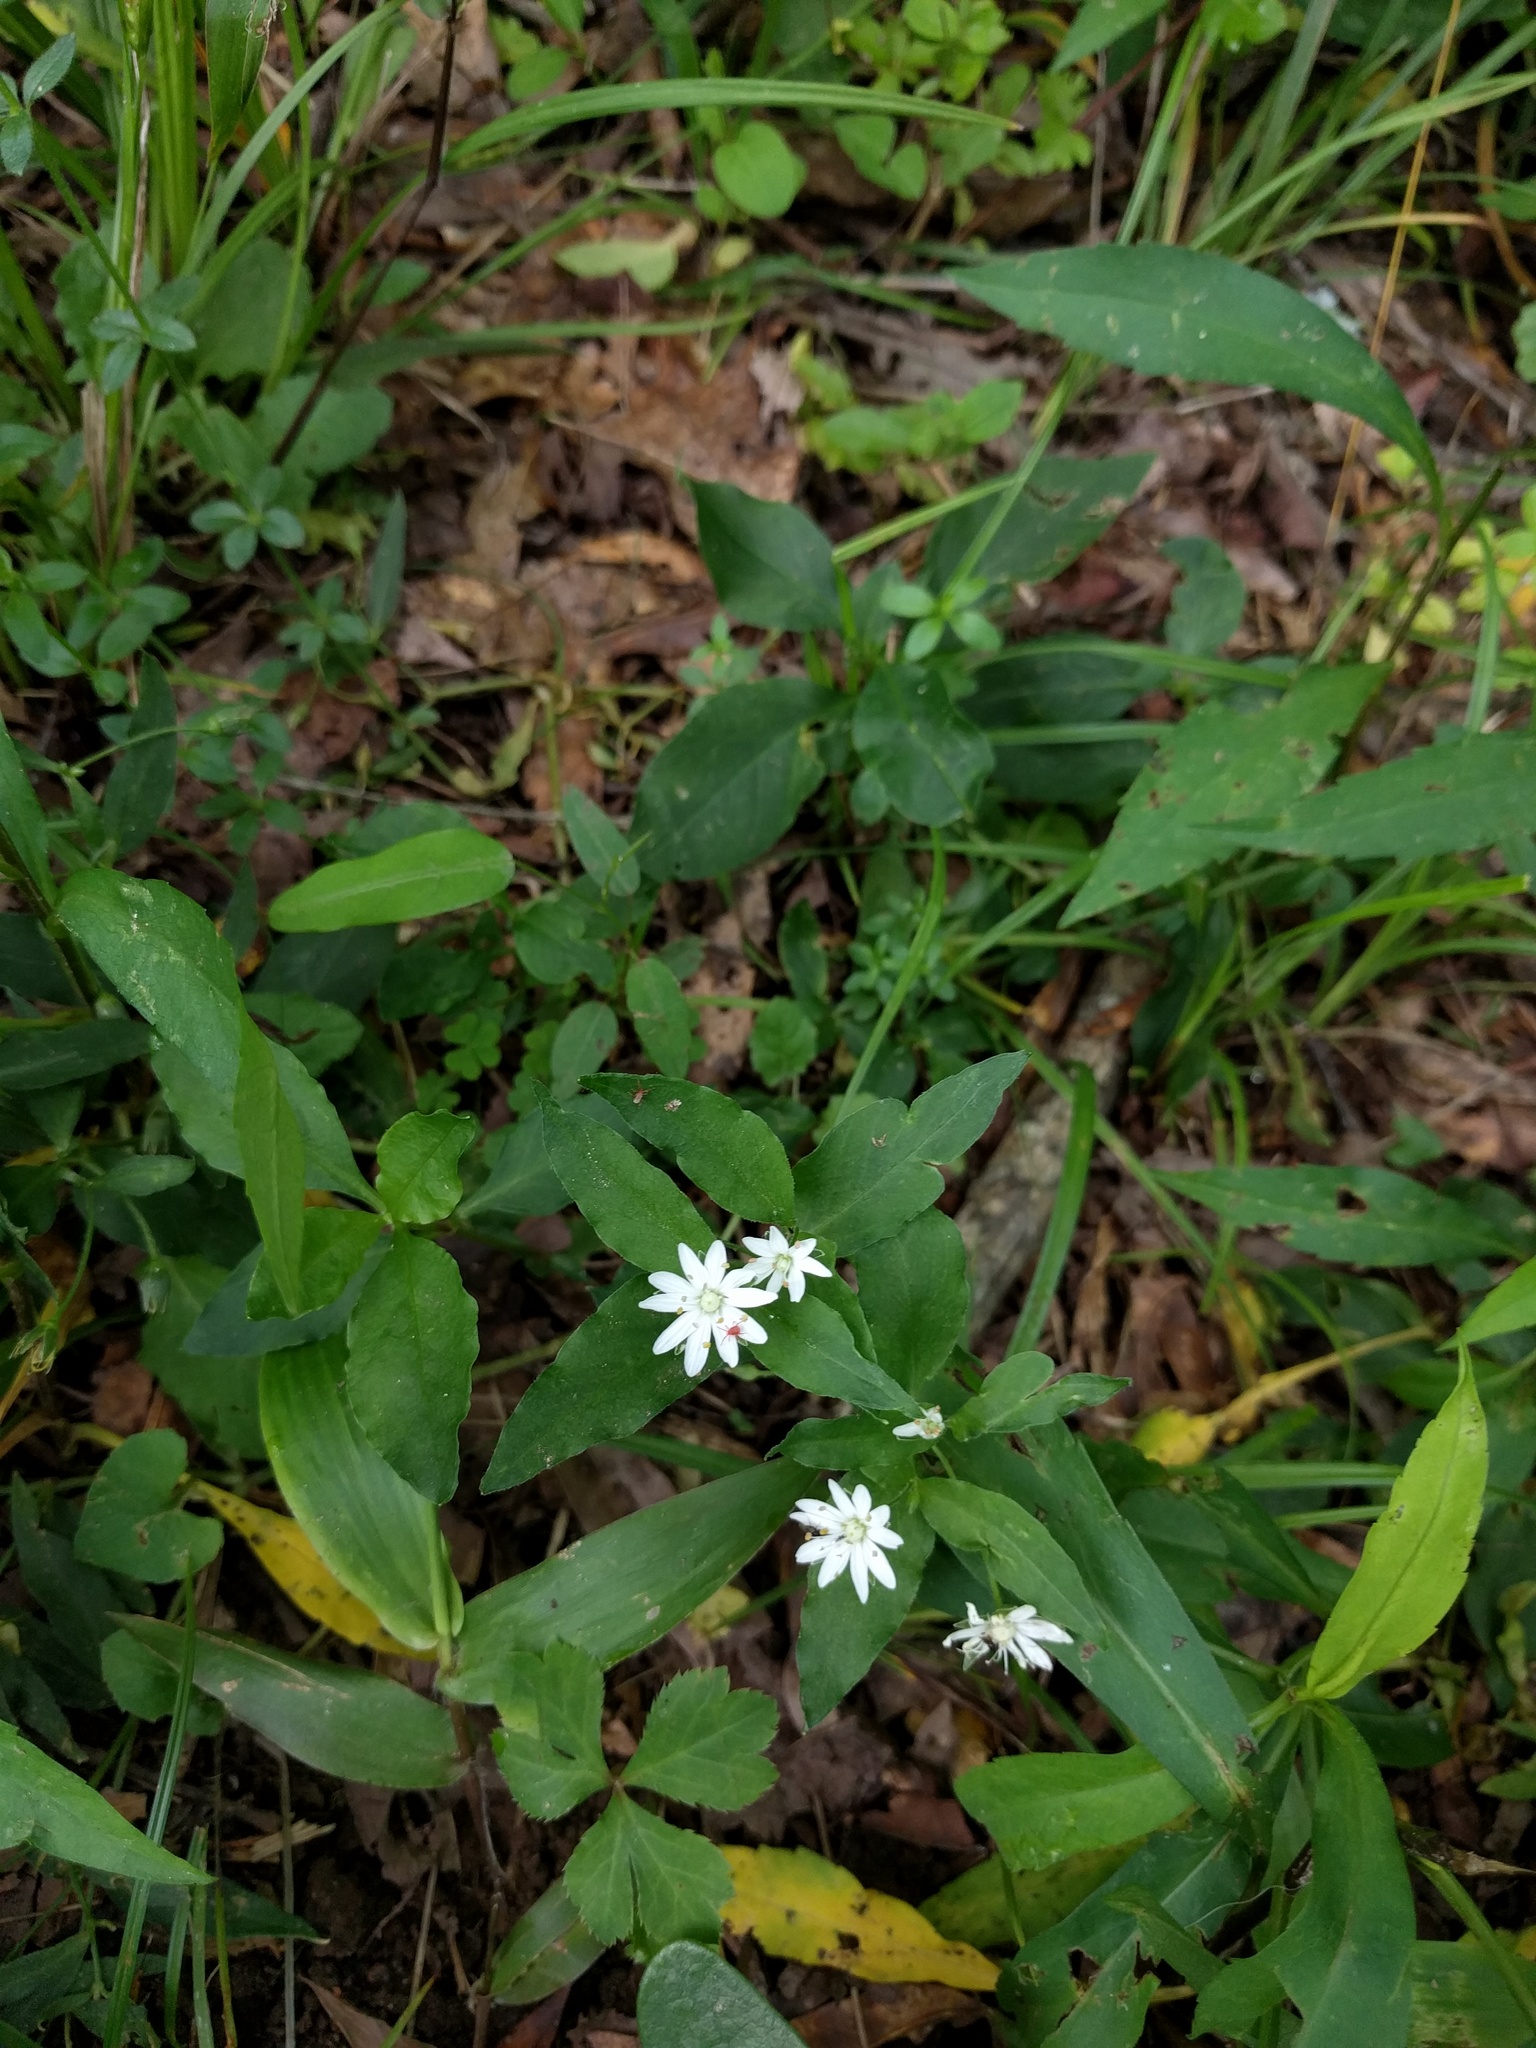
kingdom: Plantae
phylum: Tracheophyta
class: Magnoliopsida
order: Caryophyllales
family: Caryophyllaceae
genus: Stellaria
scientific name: Stellaria pubera
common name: Star chickweed
